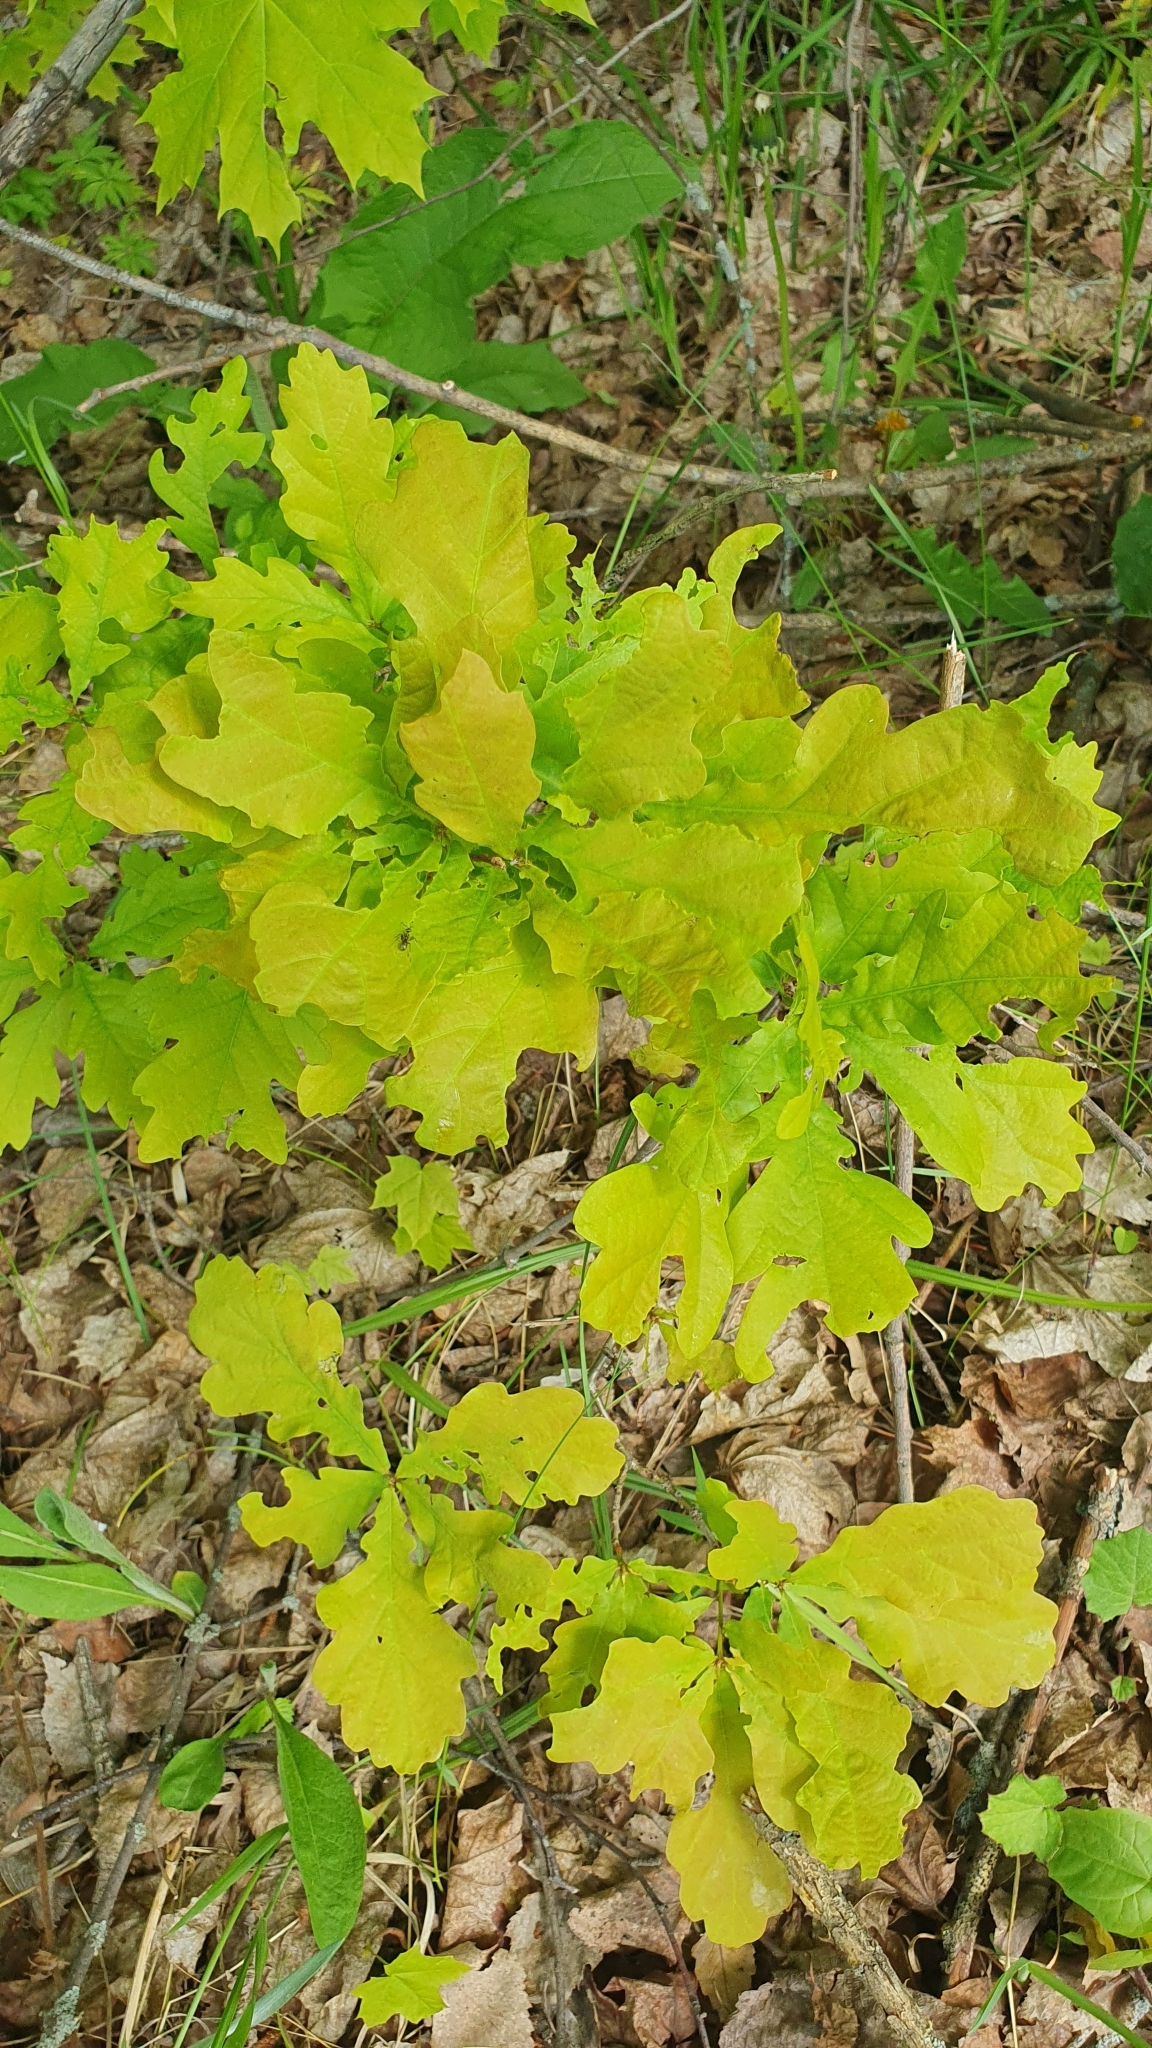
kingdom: Plantae
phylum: Tracheophyta
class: Magnoliopsida
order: Fagales
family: Fagaceae
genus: Quercus
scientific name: Quercus robur
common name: Pedunculate oak
